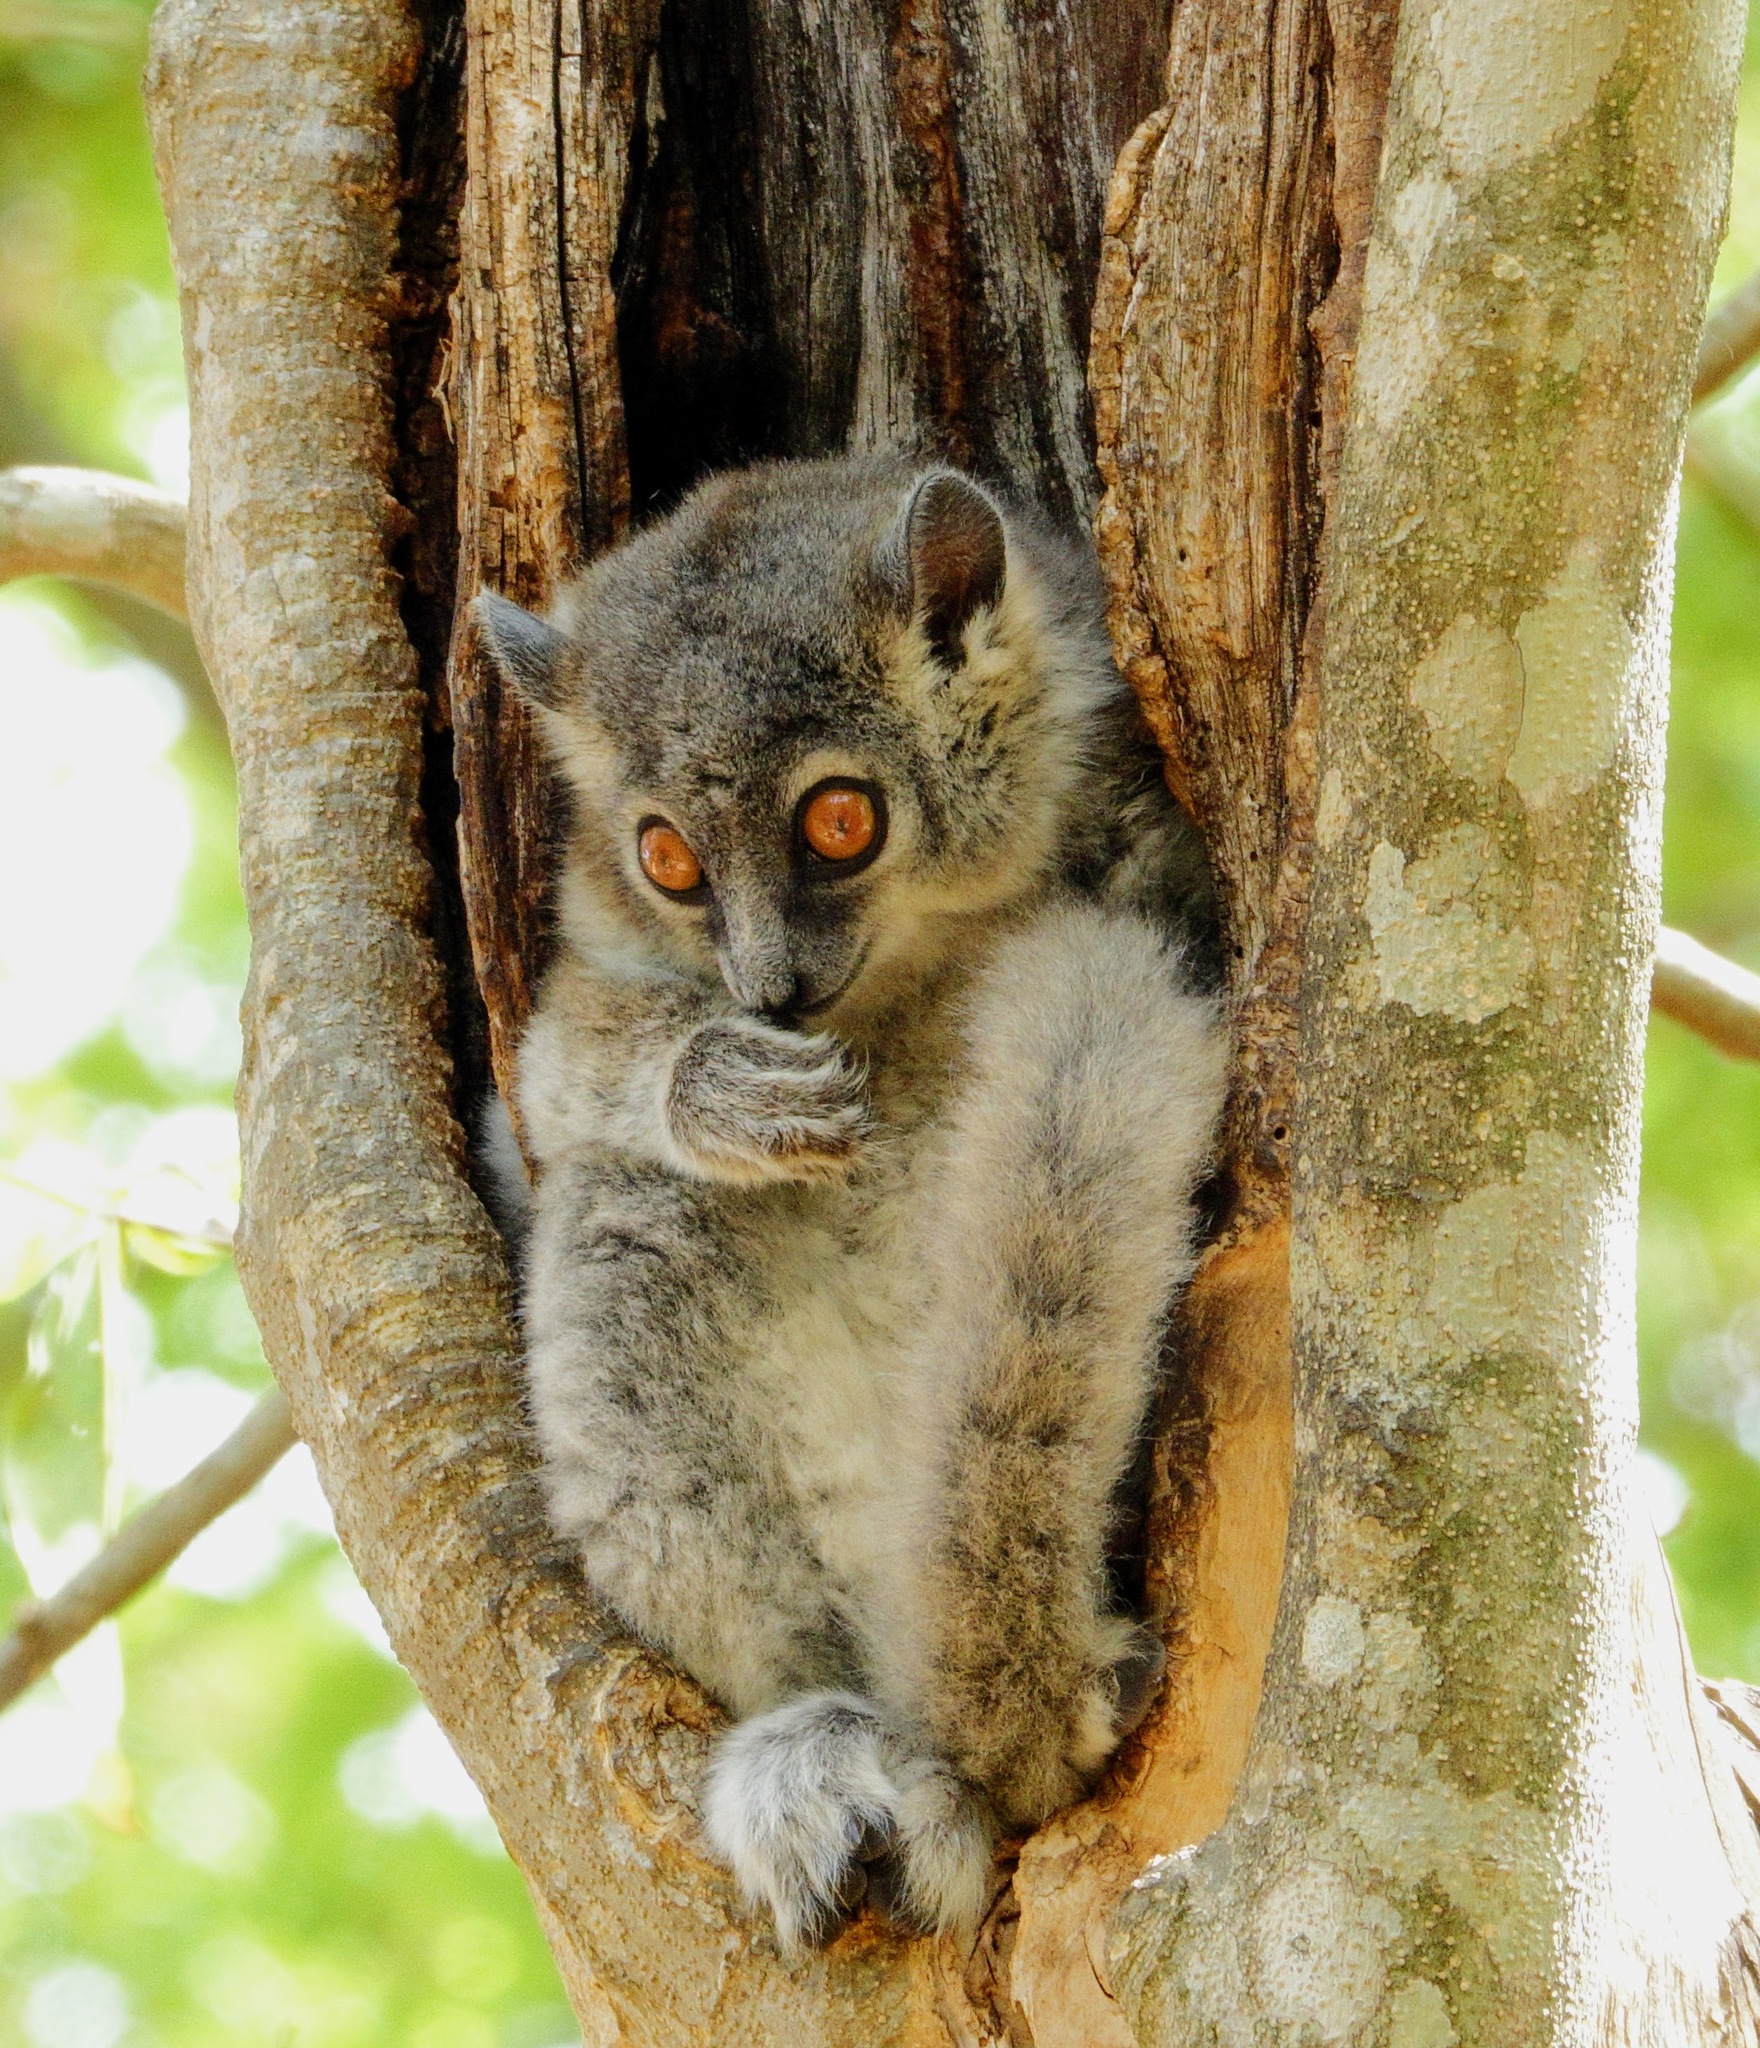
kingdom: Animalia
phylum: Chordata
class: Mammalia
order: Primates
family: Lepilemuridae
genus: Lepilemur
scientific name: Lepilemur leucopus
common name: White-footed sportive lemur
